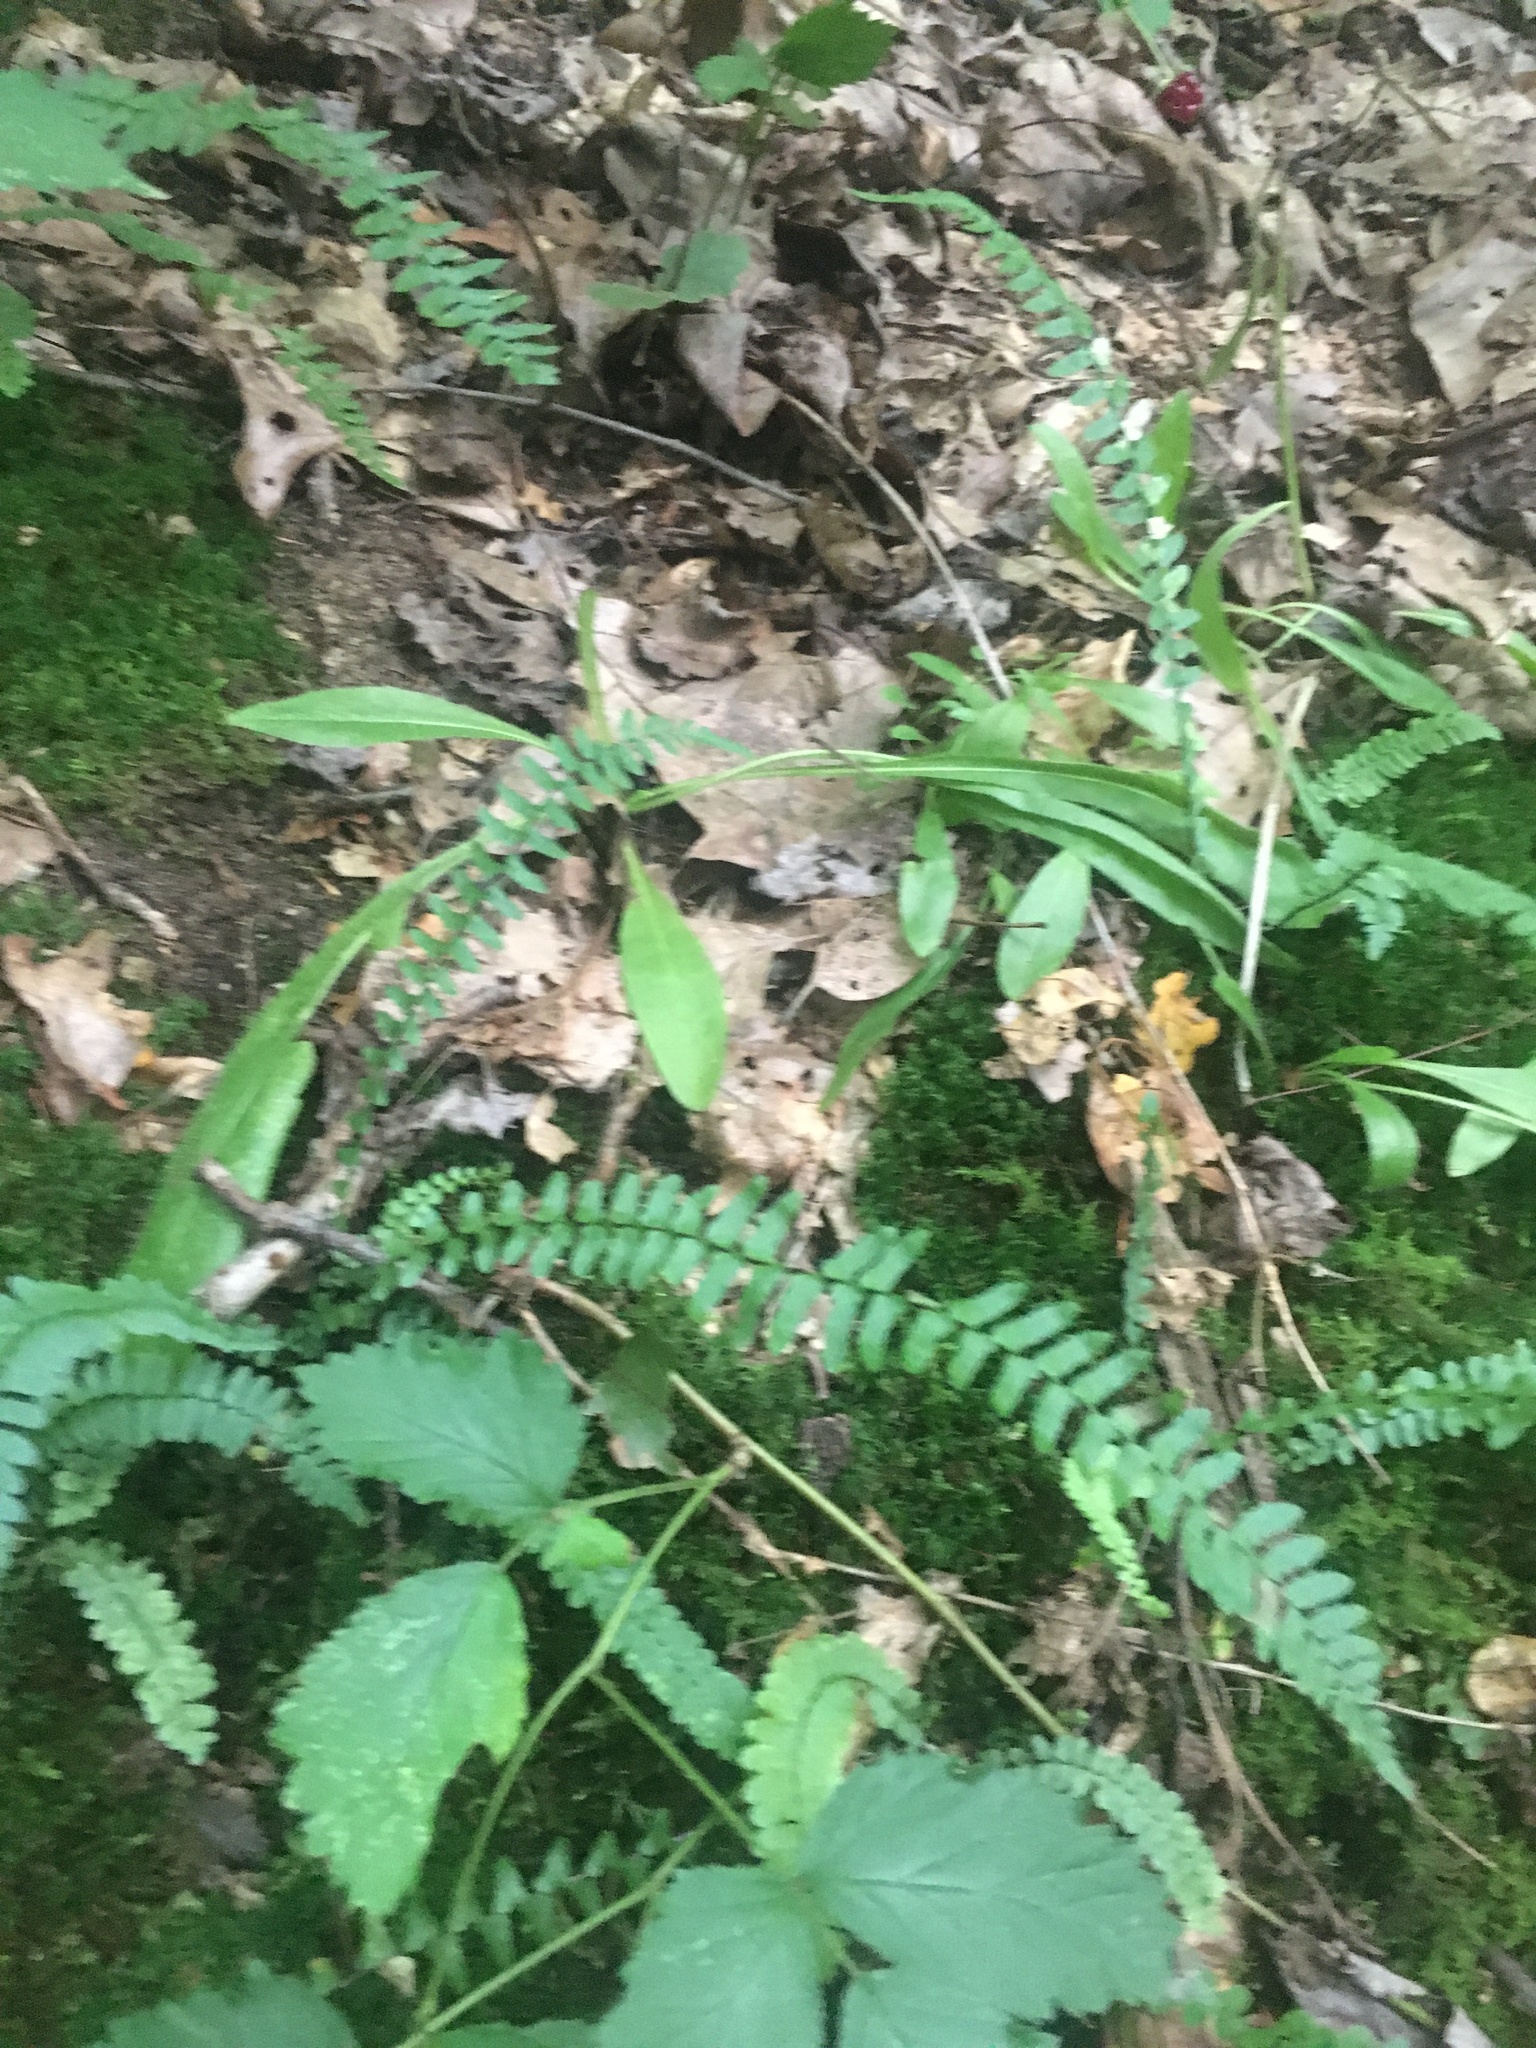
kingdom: Plantae
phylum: Tracheophyta
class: Polypodiopsida
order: Polypodiales
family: Aspleniaceae
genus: Asplenium
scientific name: Asplenium platyneuron
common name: Ebony spleenwort
